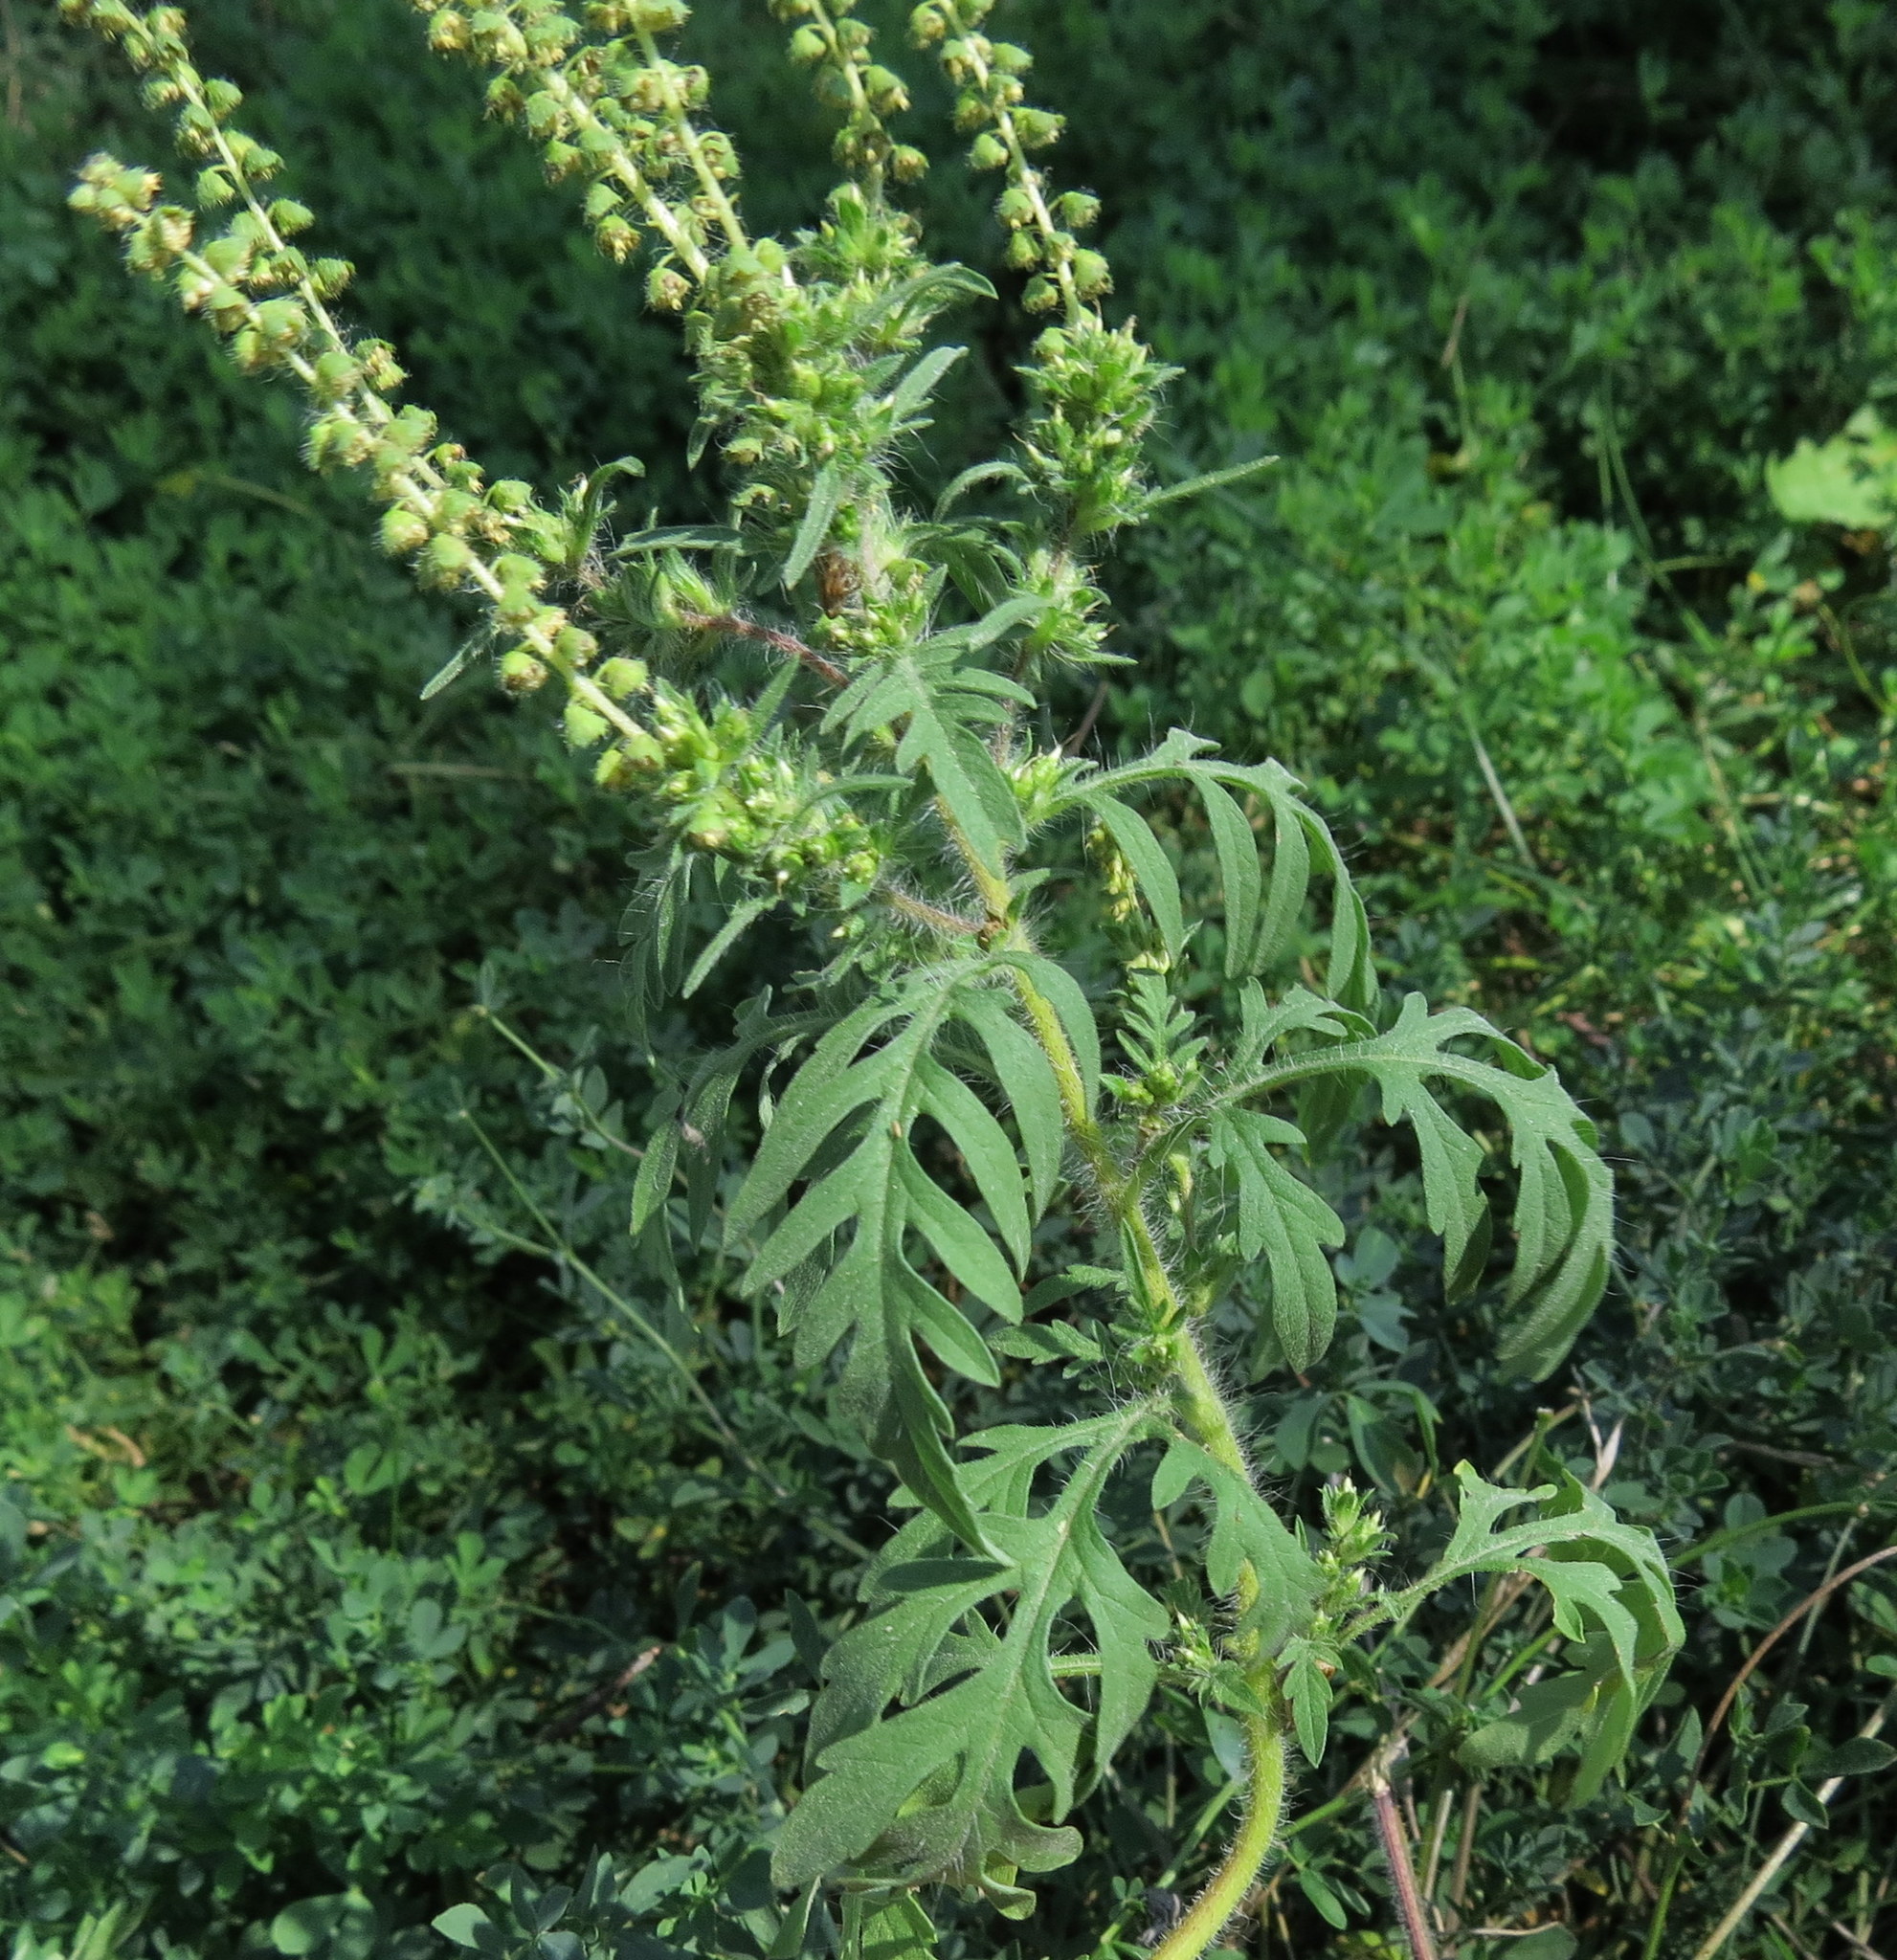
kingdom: Plantae
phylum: Tracheophyta
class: Magnoliopsida
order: Asterales
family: Asteraceae
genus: Ambrosia
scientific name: Ambrosia artemisiifolia
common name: Annual ragweed
